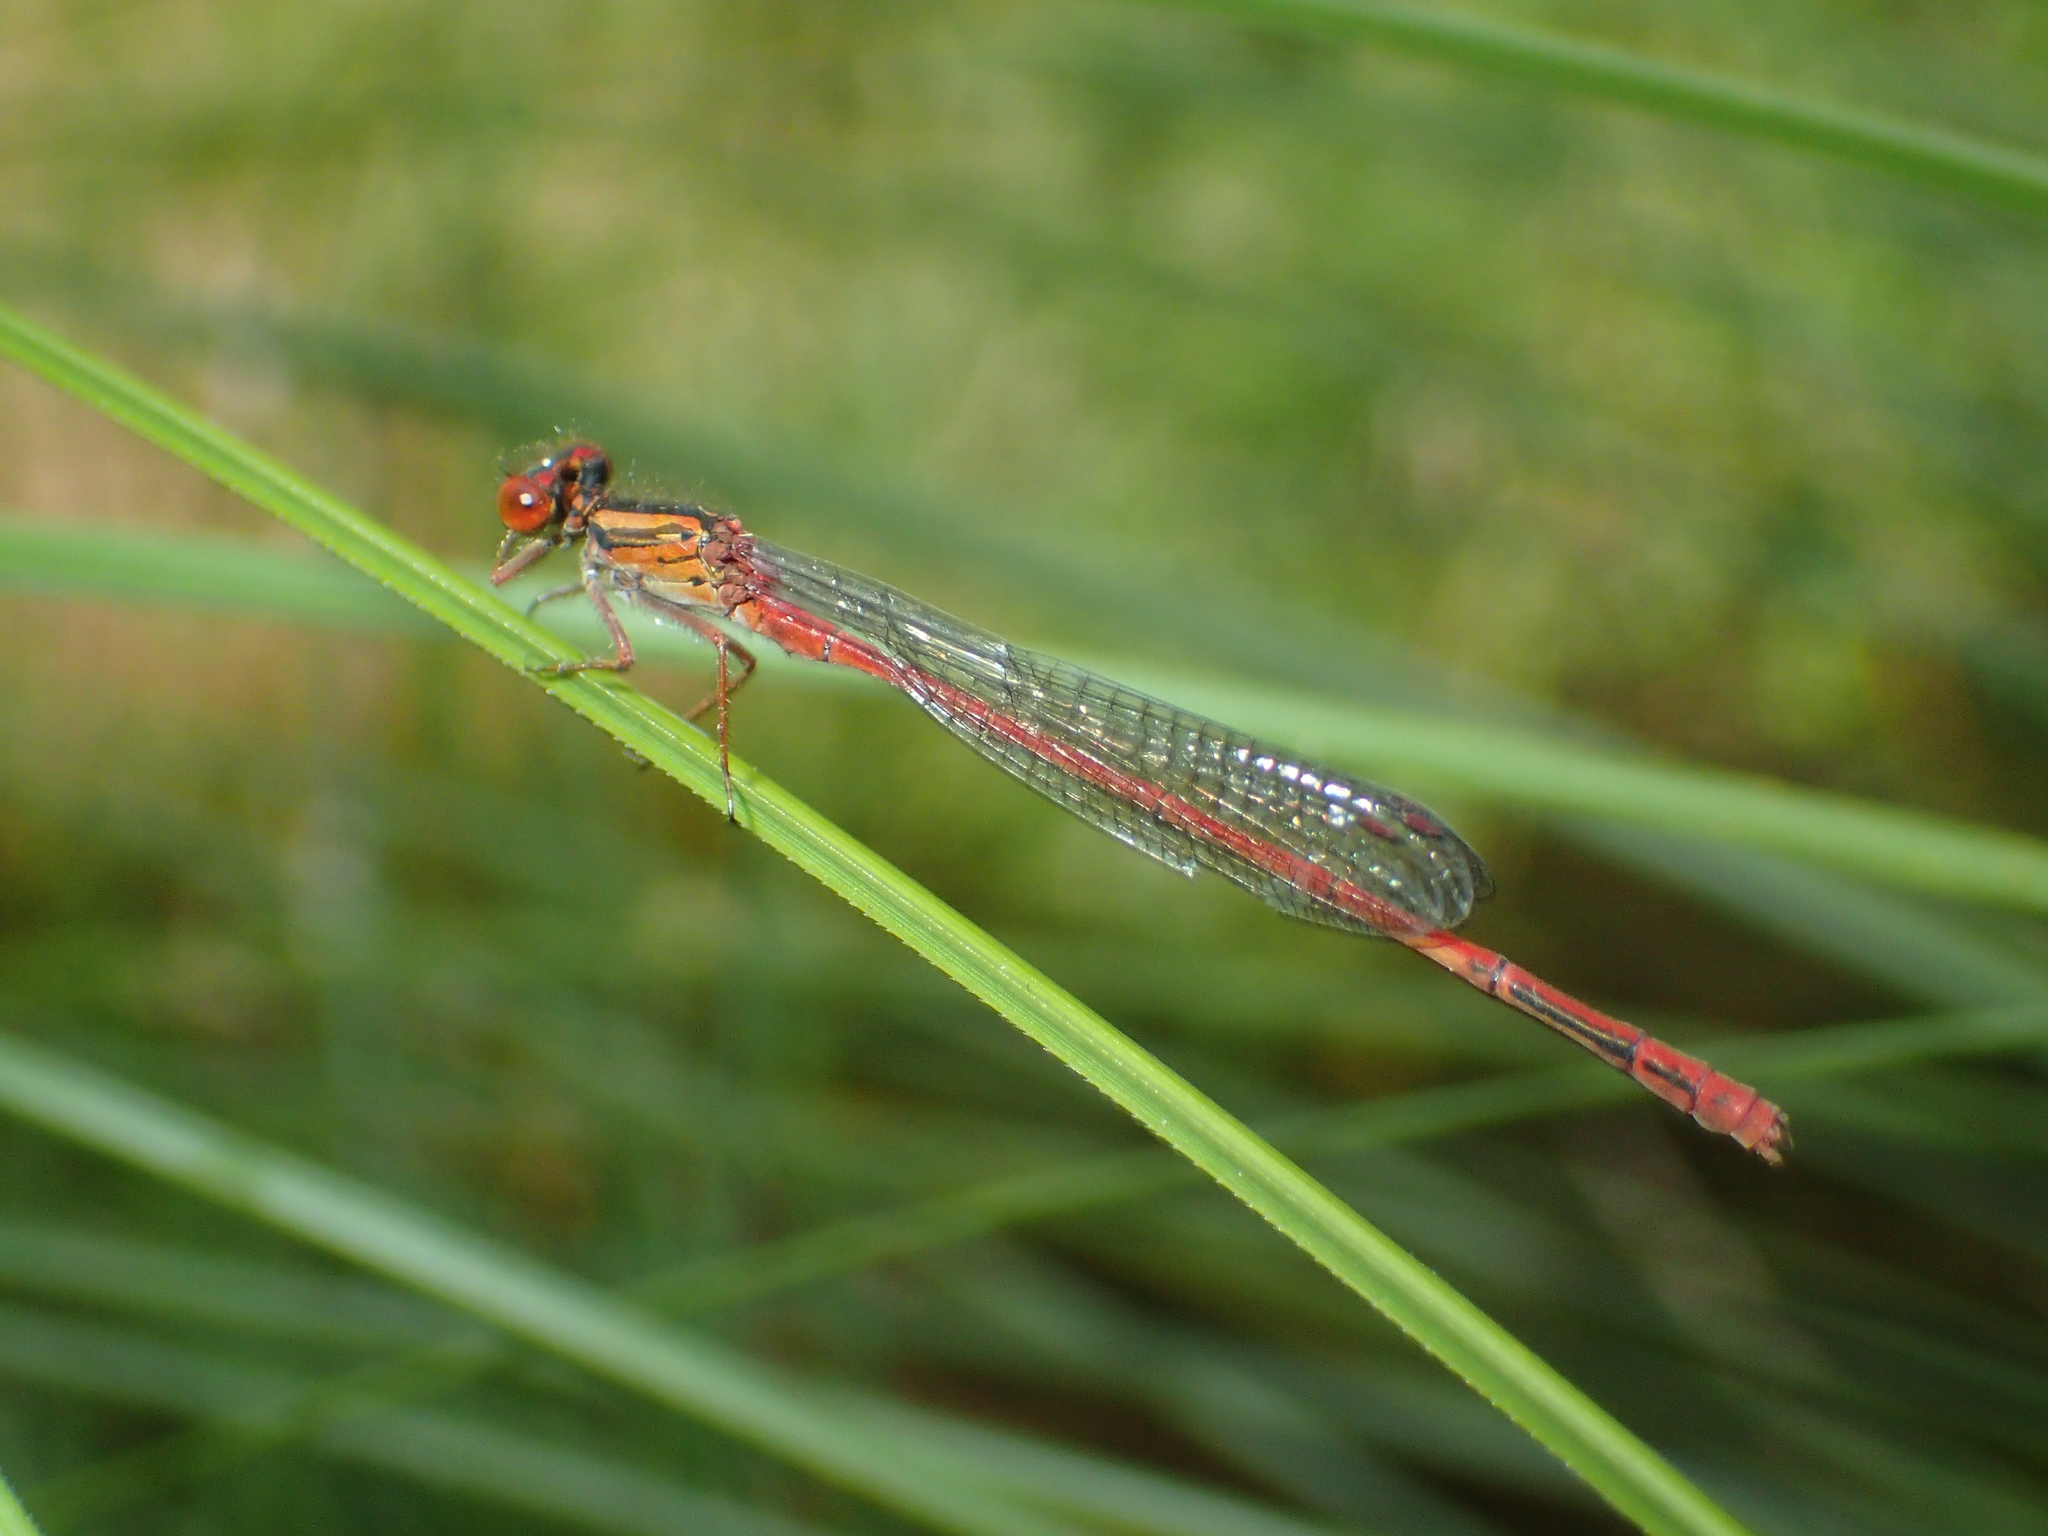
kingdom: Animalia
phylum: Arthropoda
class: Insecta
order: Odonata
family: Coenagrionidae
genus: Xanthocnemis
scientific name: Xanthocnemis zealandica
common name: Common redcoat damselfly
